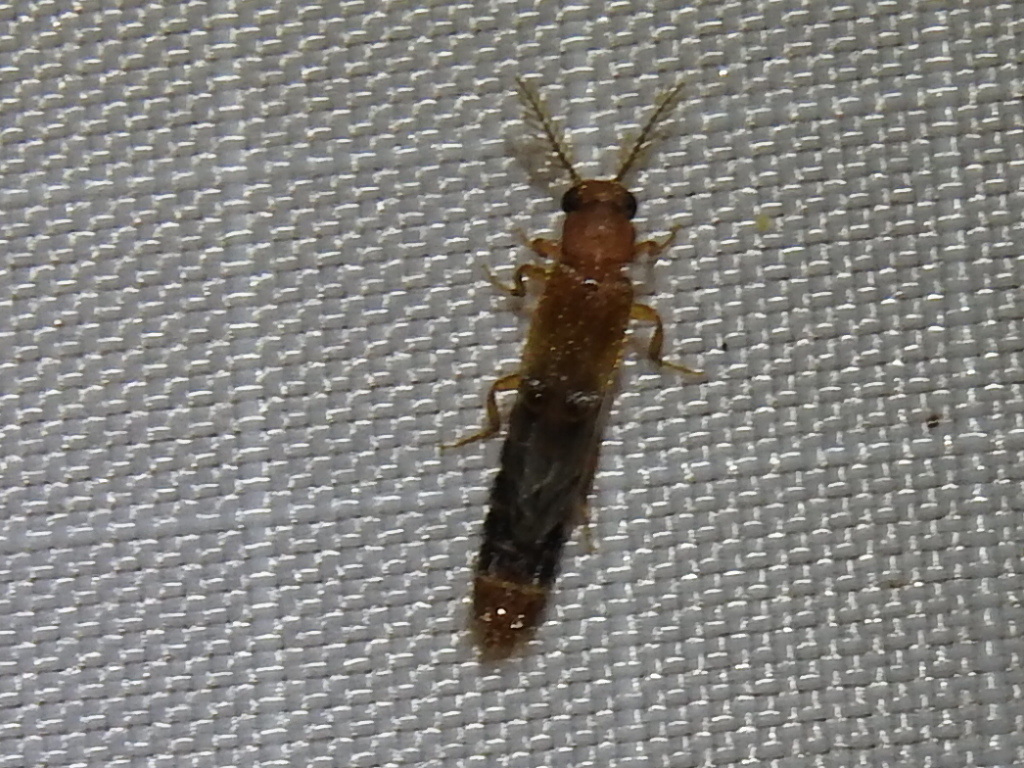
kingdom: Animalia
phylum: Arthropoda
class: Insecta
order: Coleoptera
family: Phengodidae
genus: Distremocephalus
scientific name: Distremocephalus texanus
